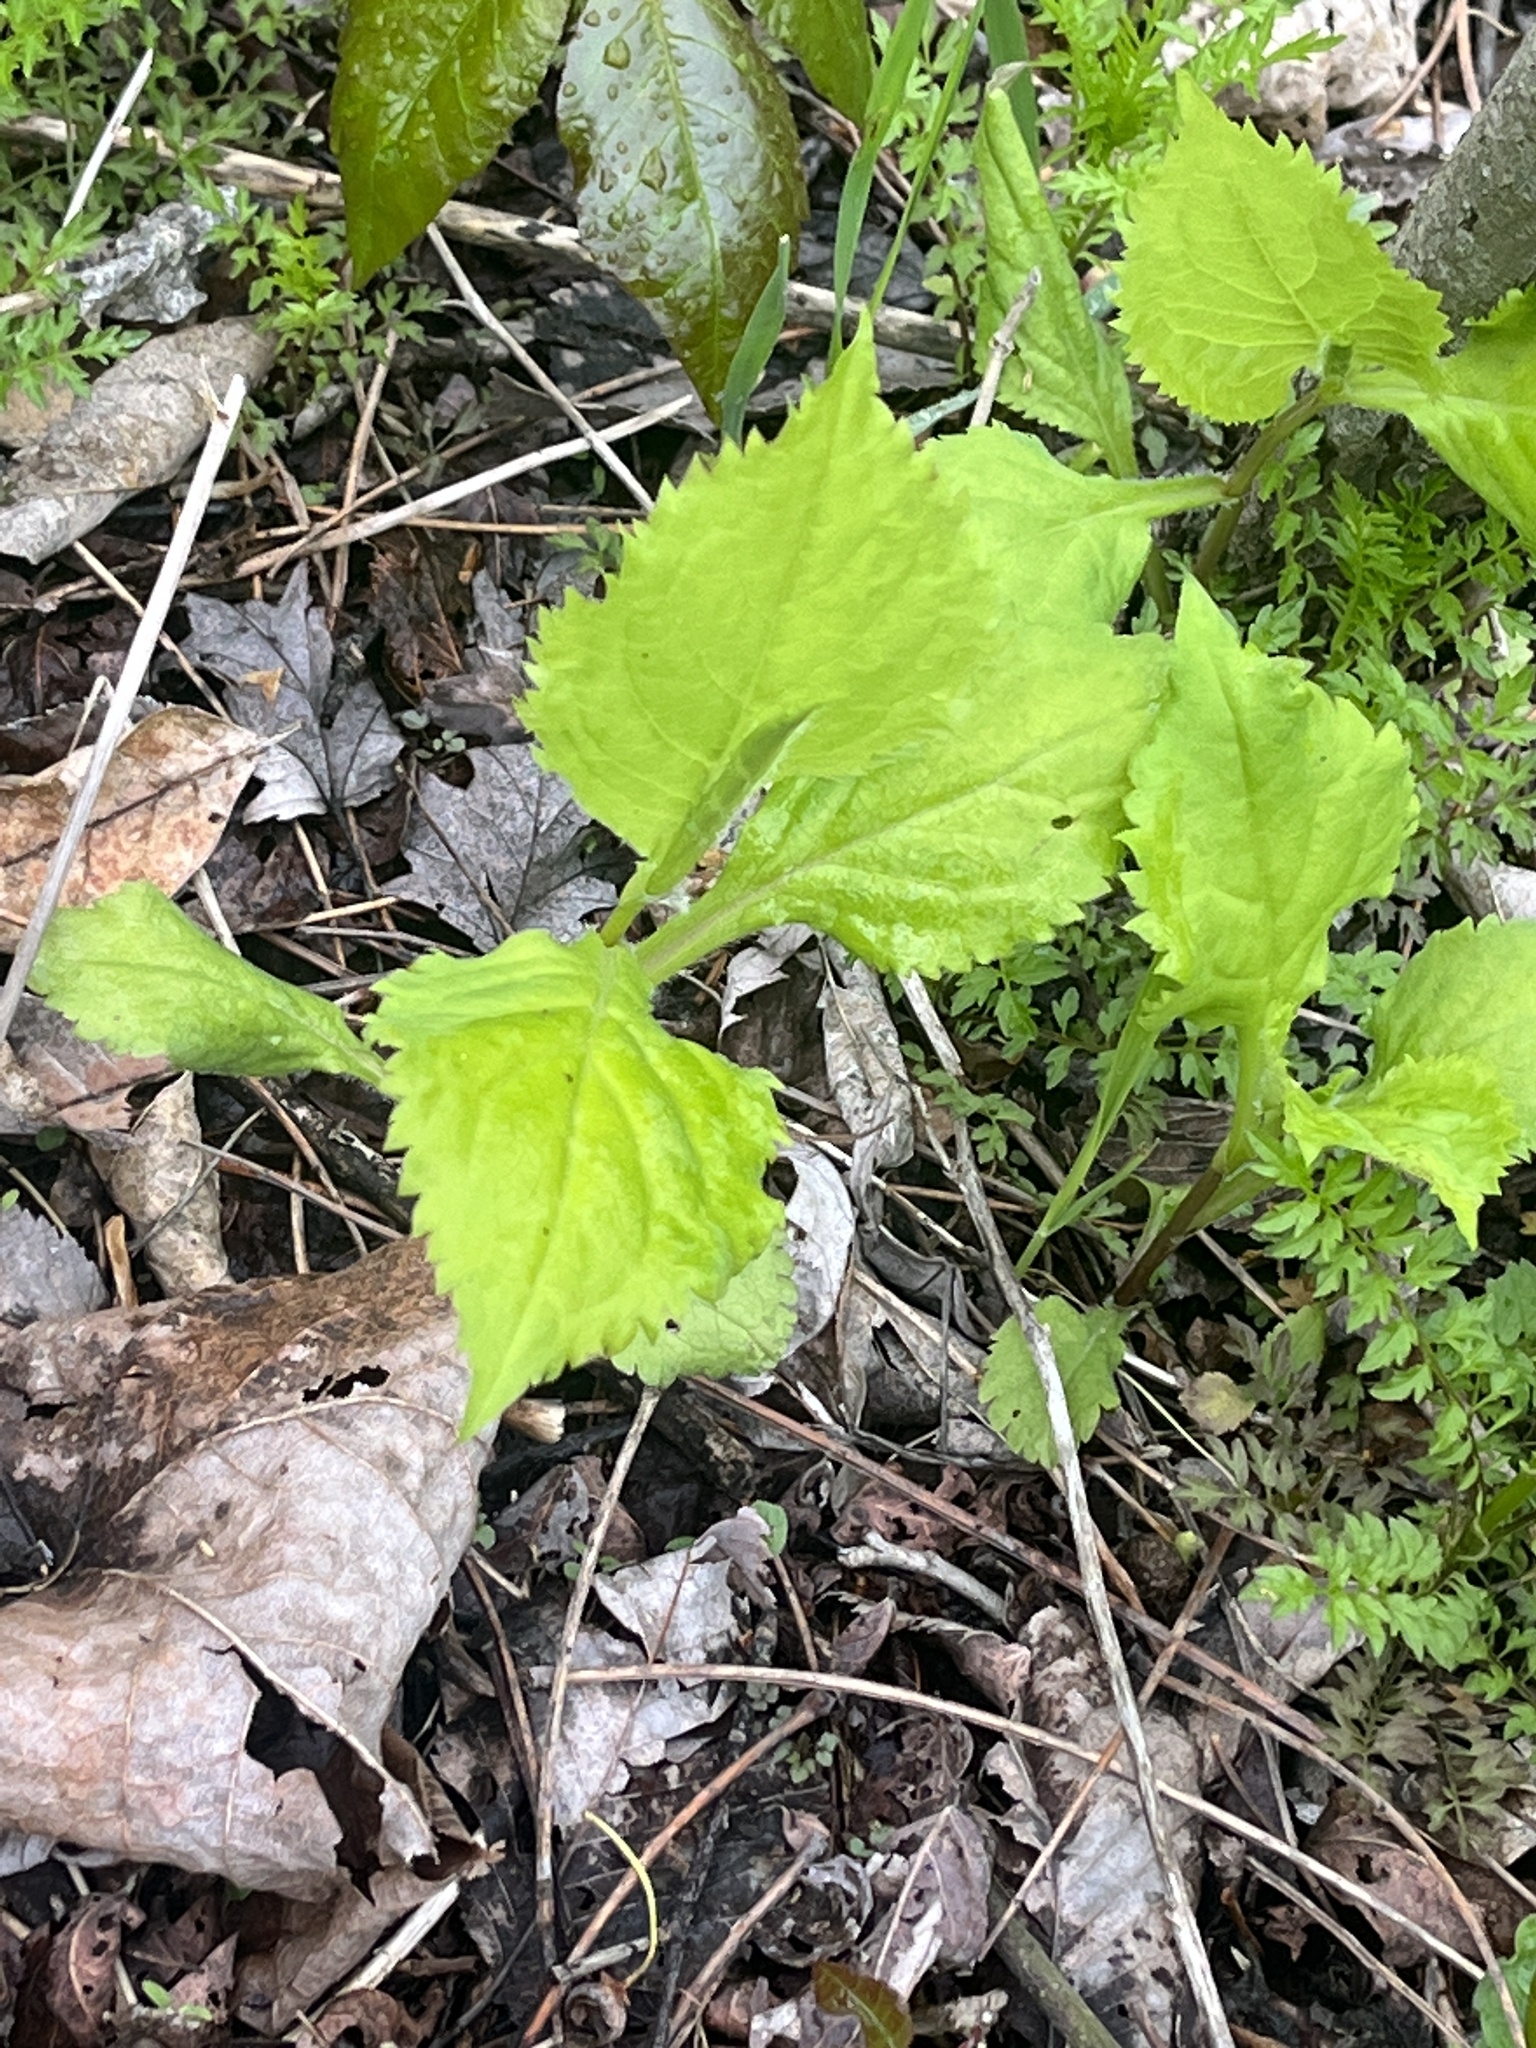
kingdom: Plantae
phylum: Tracheophyta
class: Magnoliopsida
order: Asterales
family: Asteraceae
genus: Solidago
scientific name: Solidago flexicaulis
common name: Zig-zag goldenrod
